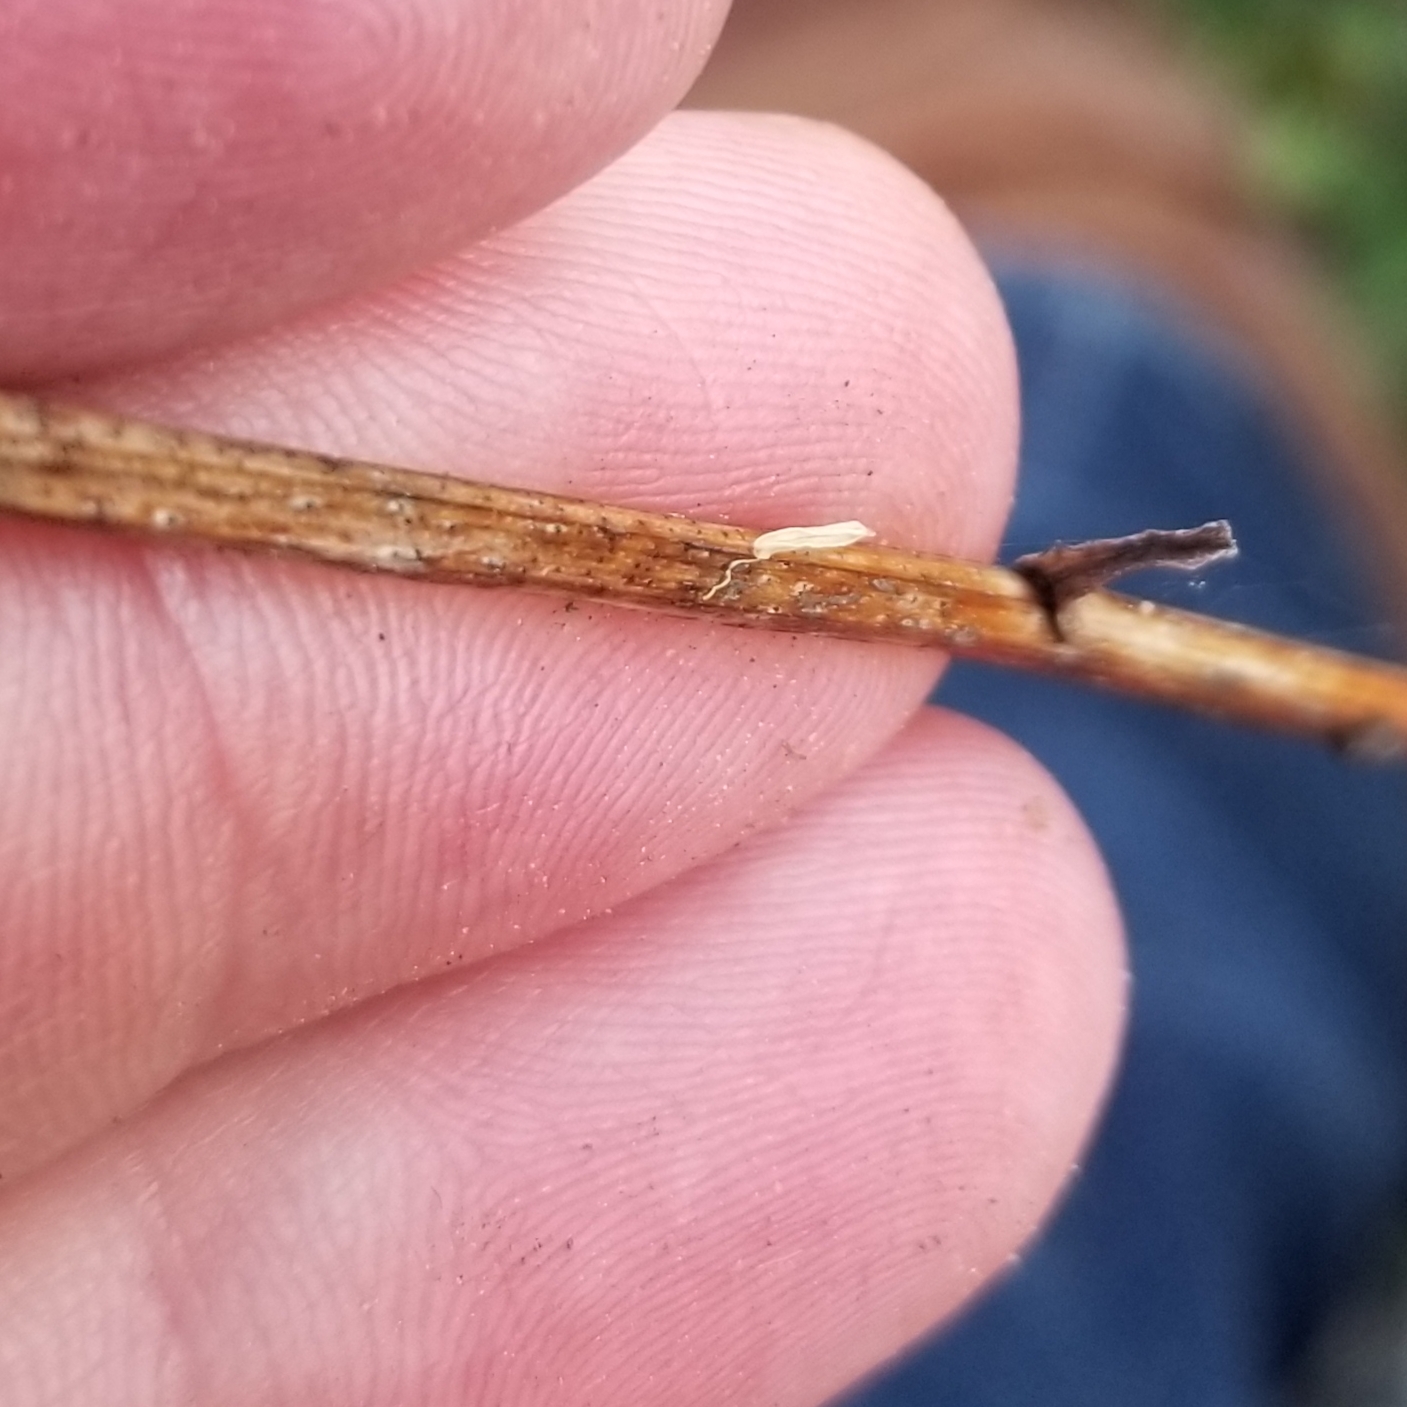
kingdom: Plantae
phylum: Tracheophyta
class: Magnoliopsida
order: Asterales
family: Asteraceae
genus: Solidago
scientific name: Solidago juncea
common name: Early goldenrod
